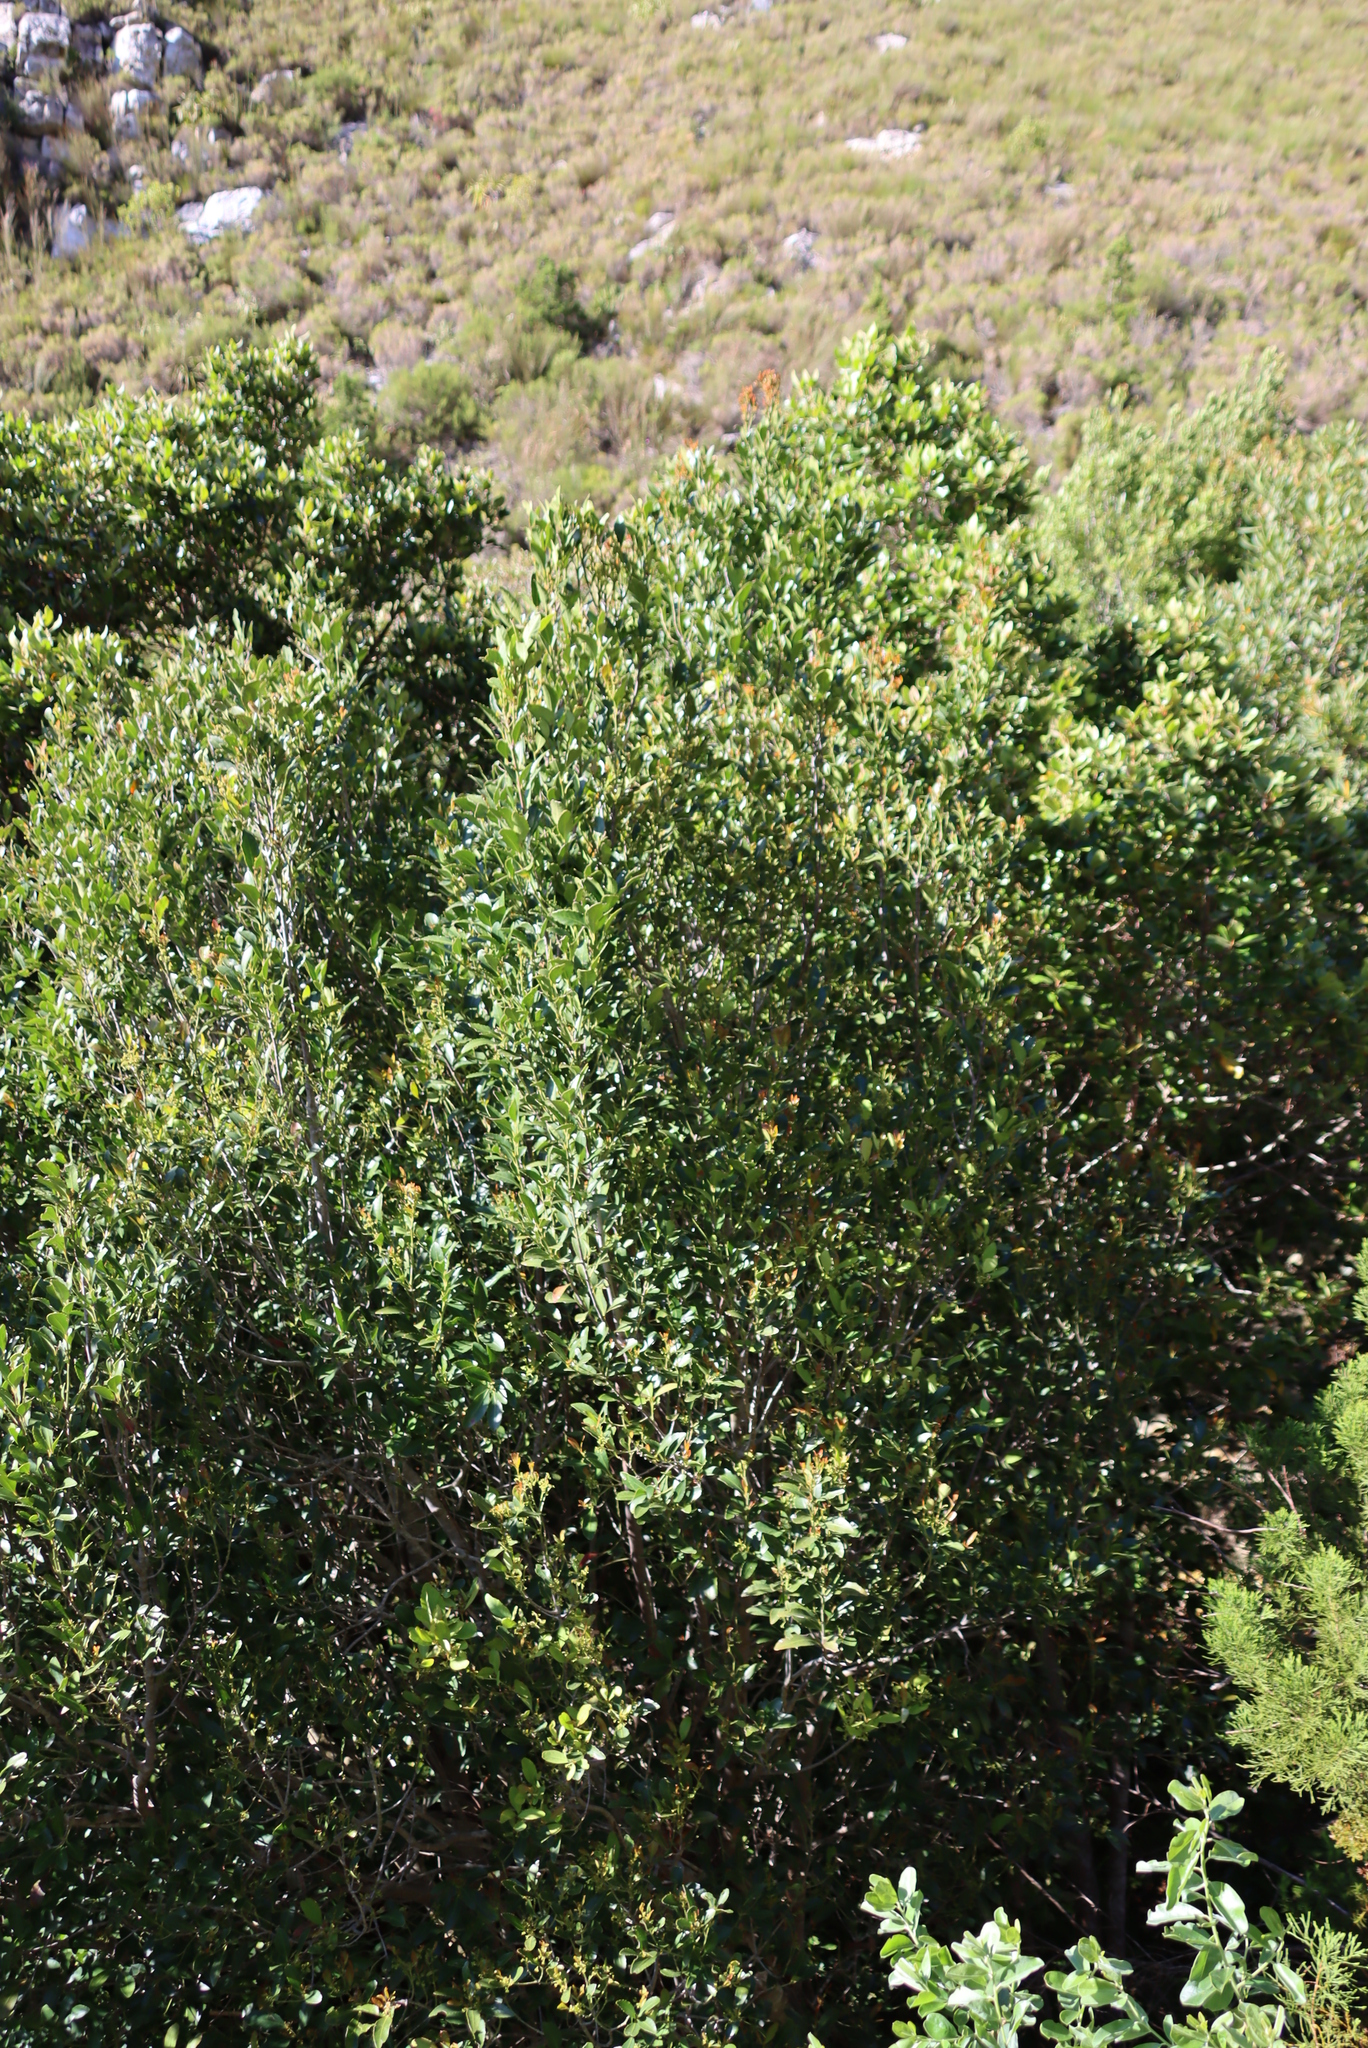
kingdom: Plantae
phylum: Tracheophyta
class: Magnoliopsida
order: Celastrales
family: Celastraceae
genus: Elaeodendron
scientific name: Elaeodendron schinoides
